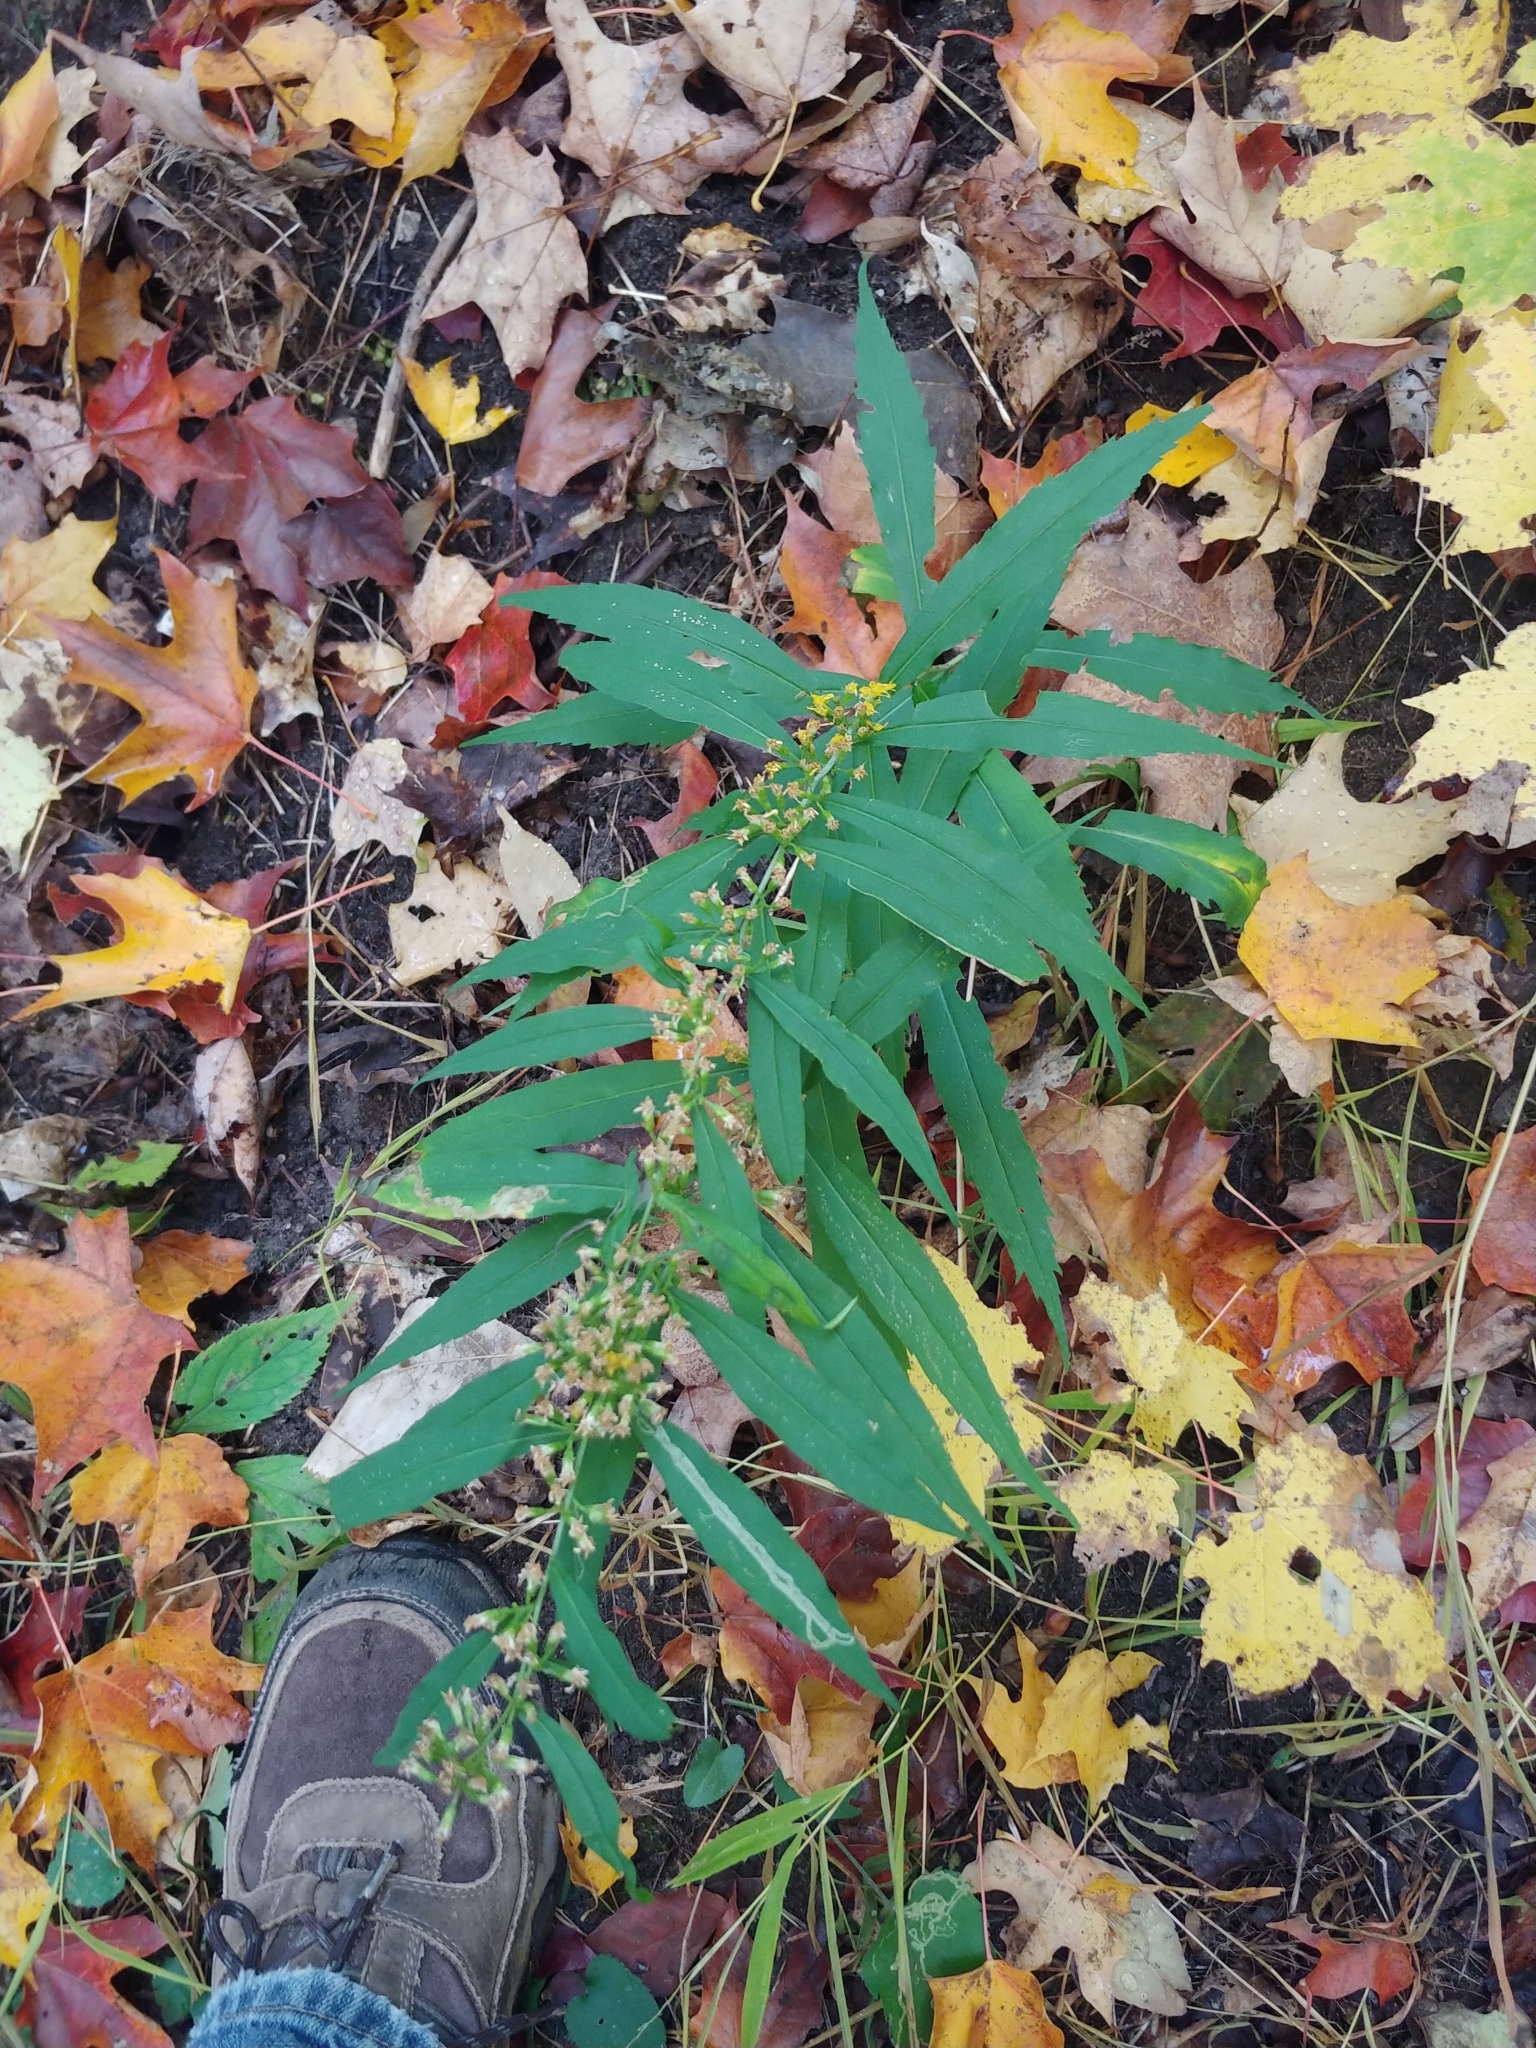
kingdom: Plantae
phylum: Tracheophyta
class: Magnoliopsida
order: Asterales
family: Asteraceae
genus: Solidago
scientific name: Solidago caesia
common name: Woodland goldenrod
